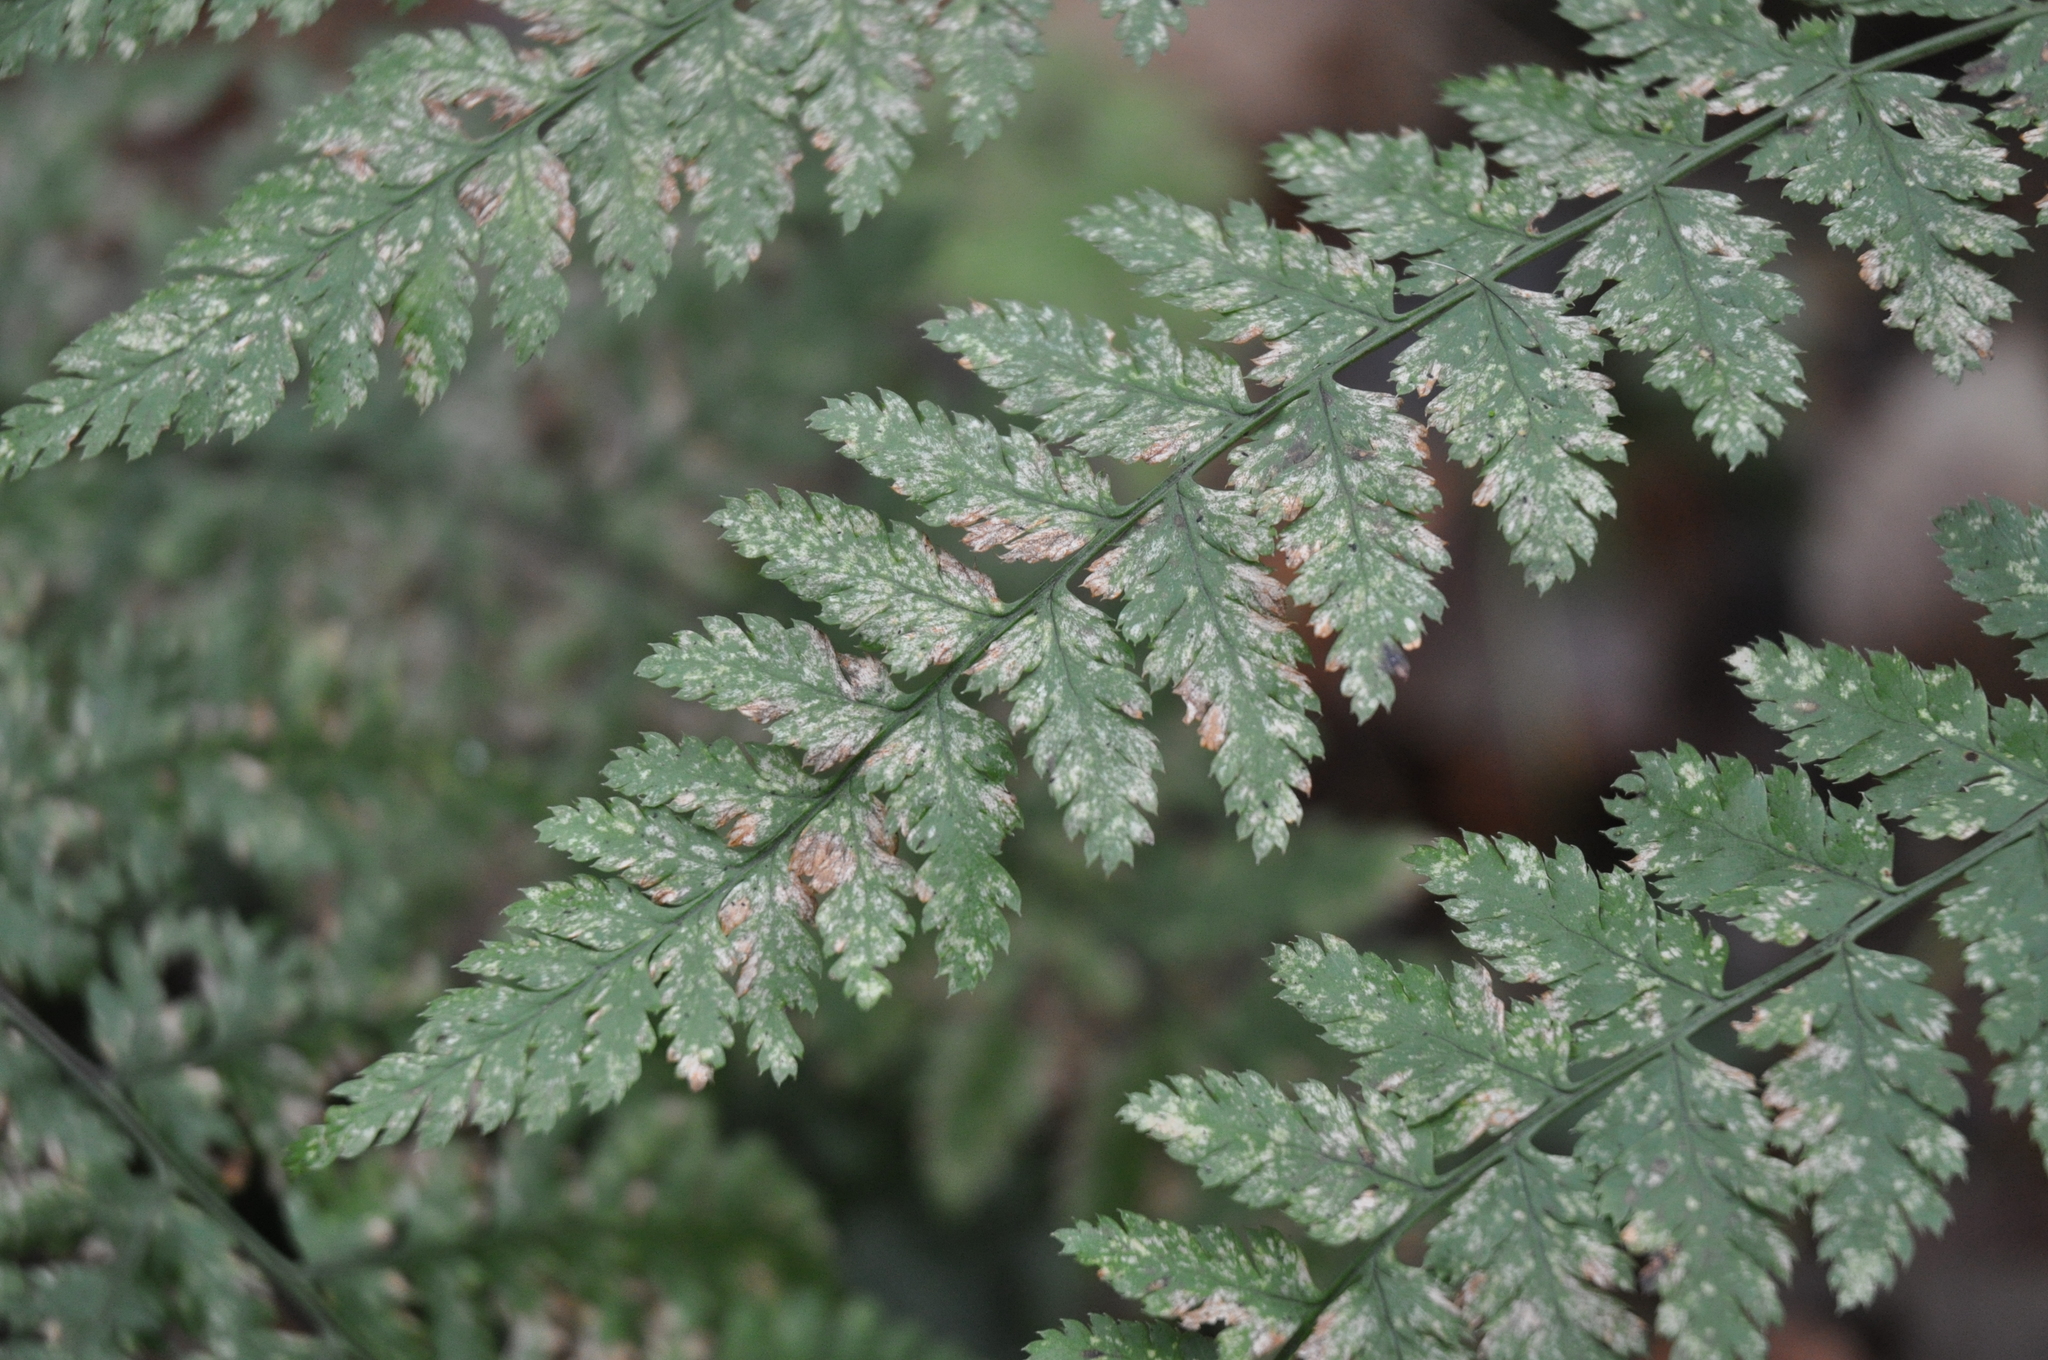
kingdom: Plantae
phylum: Tracheophyta
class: Polypodiopsida
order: Polypodiales
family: Dryopteridaceae
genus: Dryopteris
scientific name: Dryopteris dilatata
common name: Broad buckler-fern
